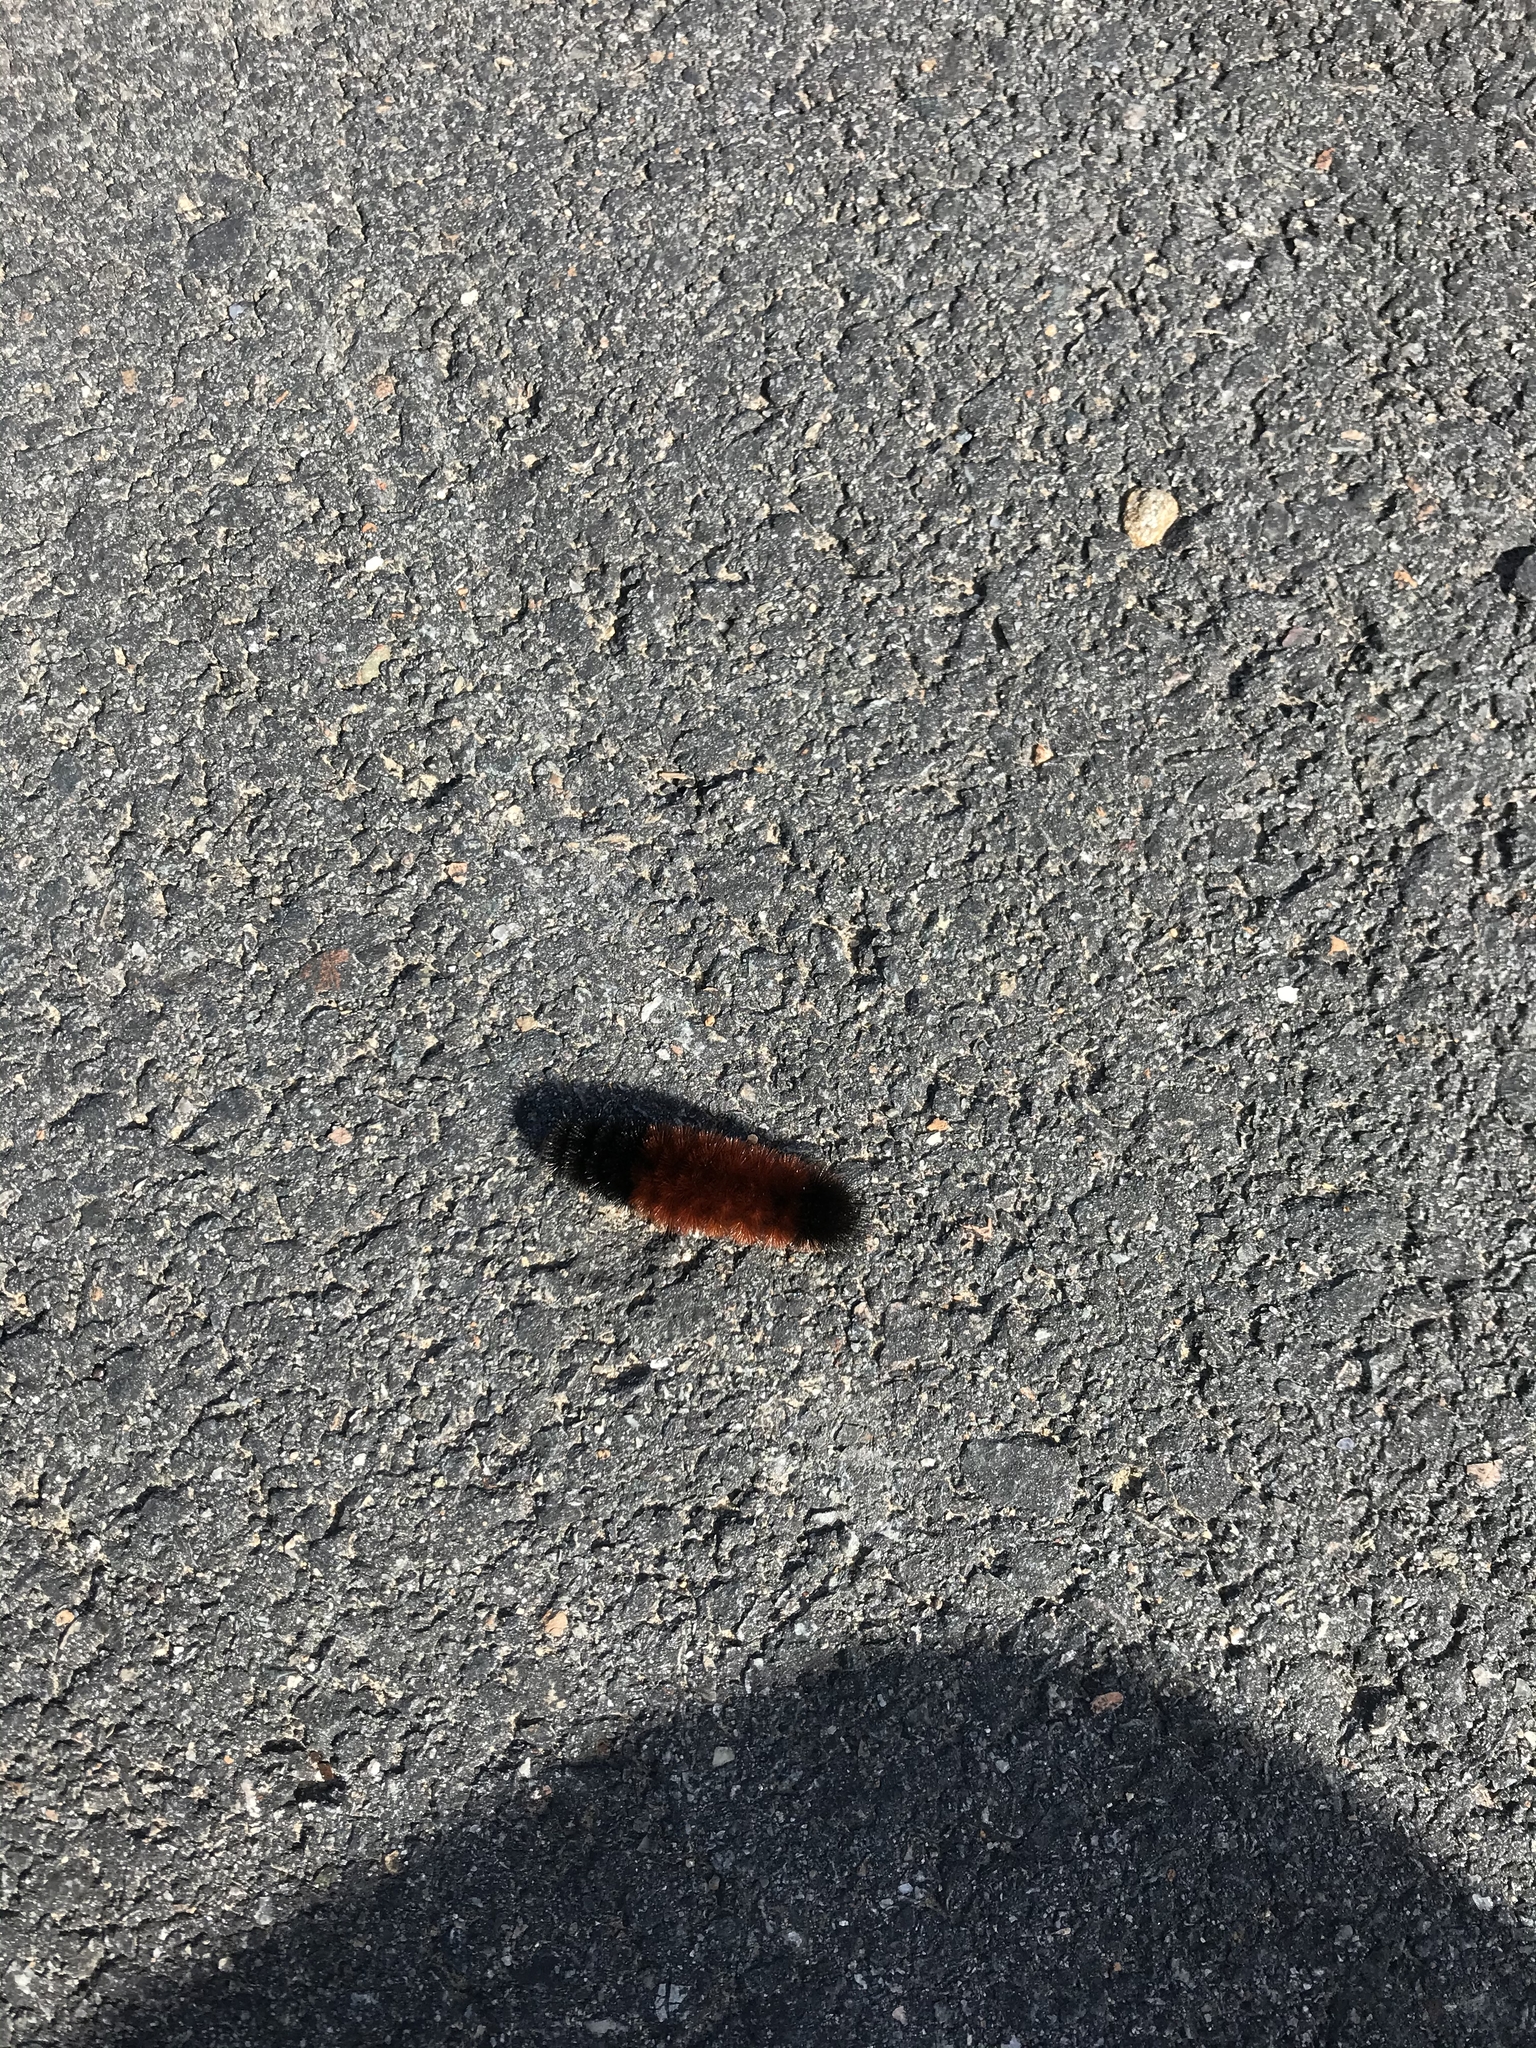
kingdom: Animalia
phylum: Arthropoda
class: Insecta
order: Lepidoptera
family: Erebidae
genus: Pyrrharctia
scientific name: Pyrrharctia isabella
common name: Isabella tiger moth
